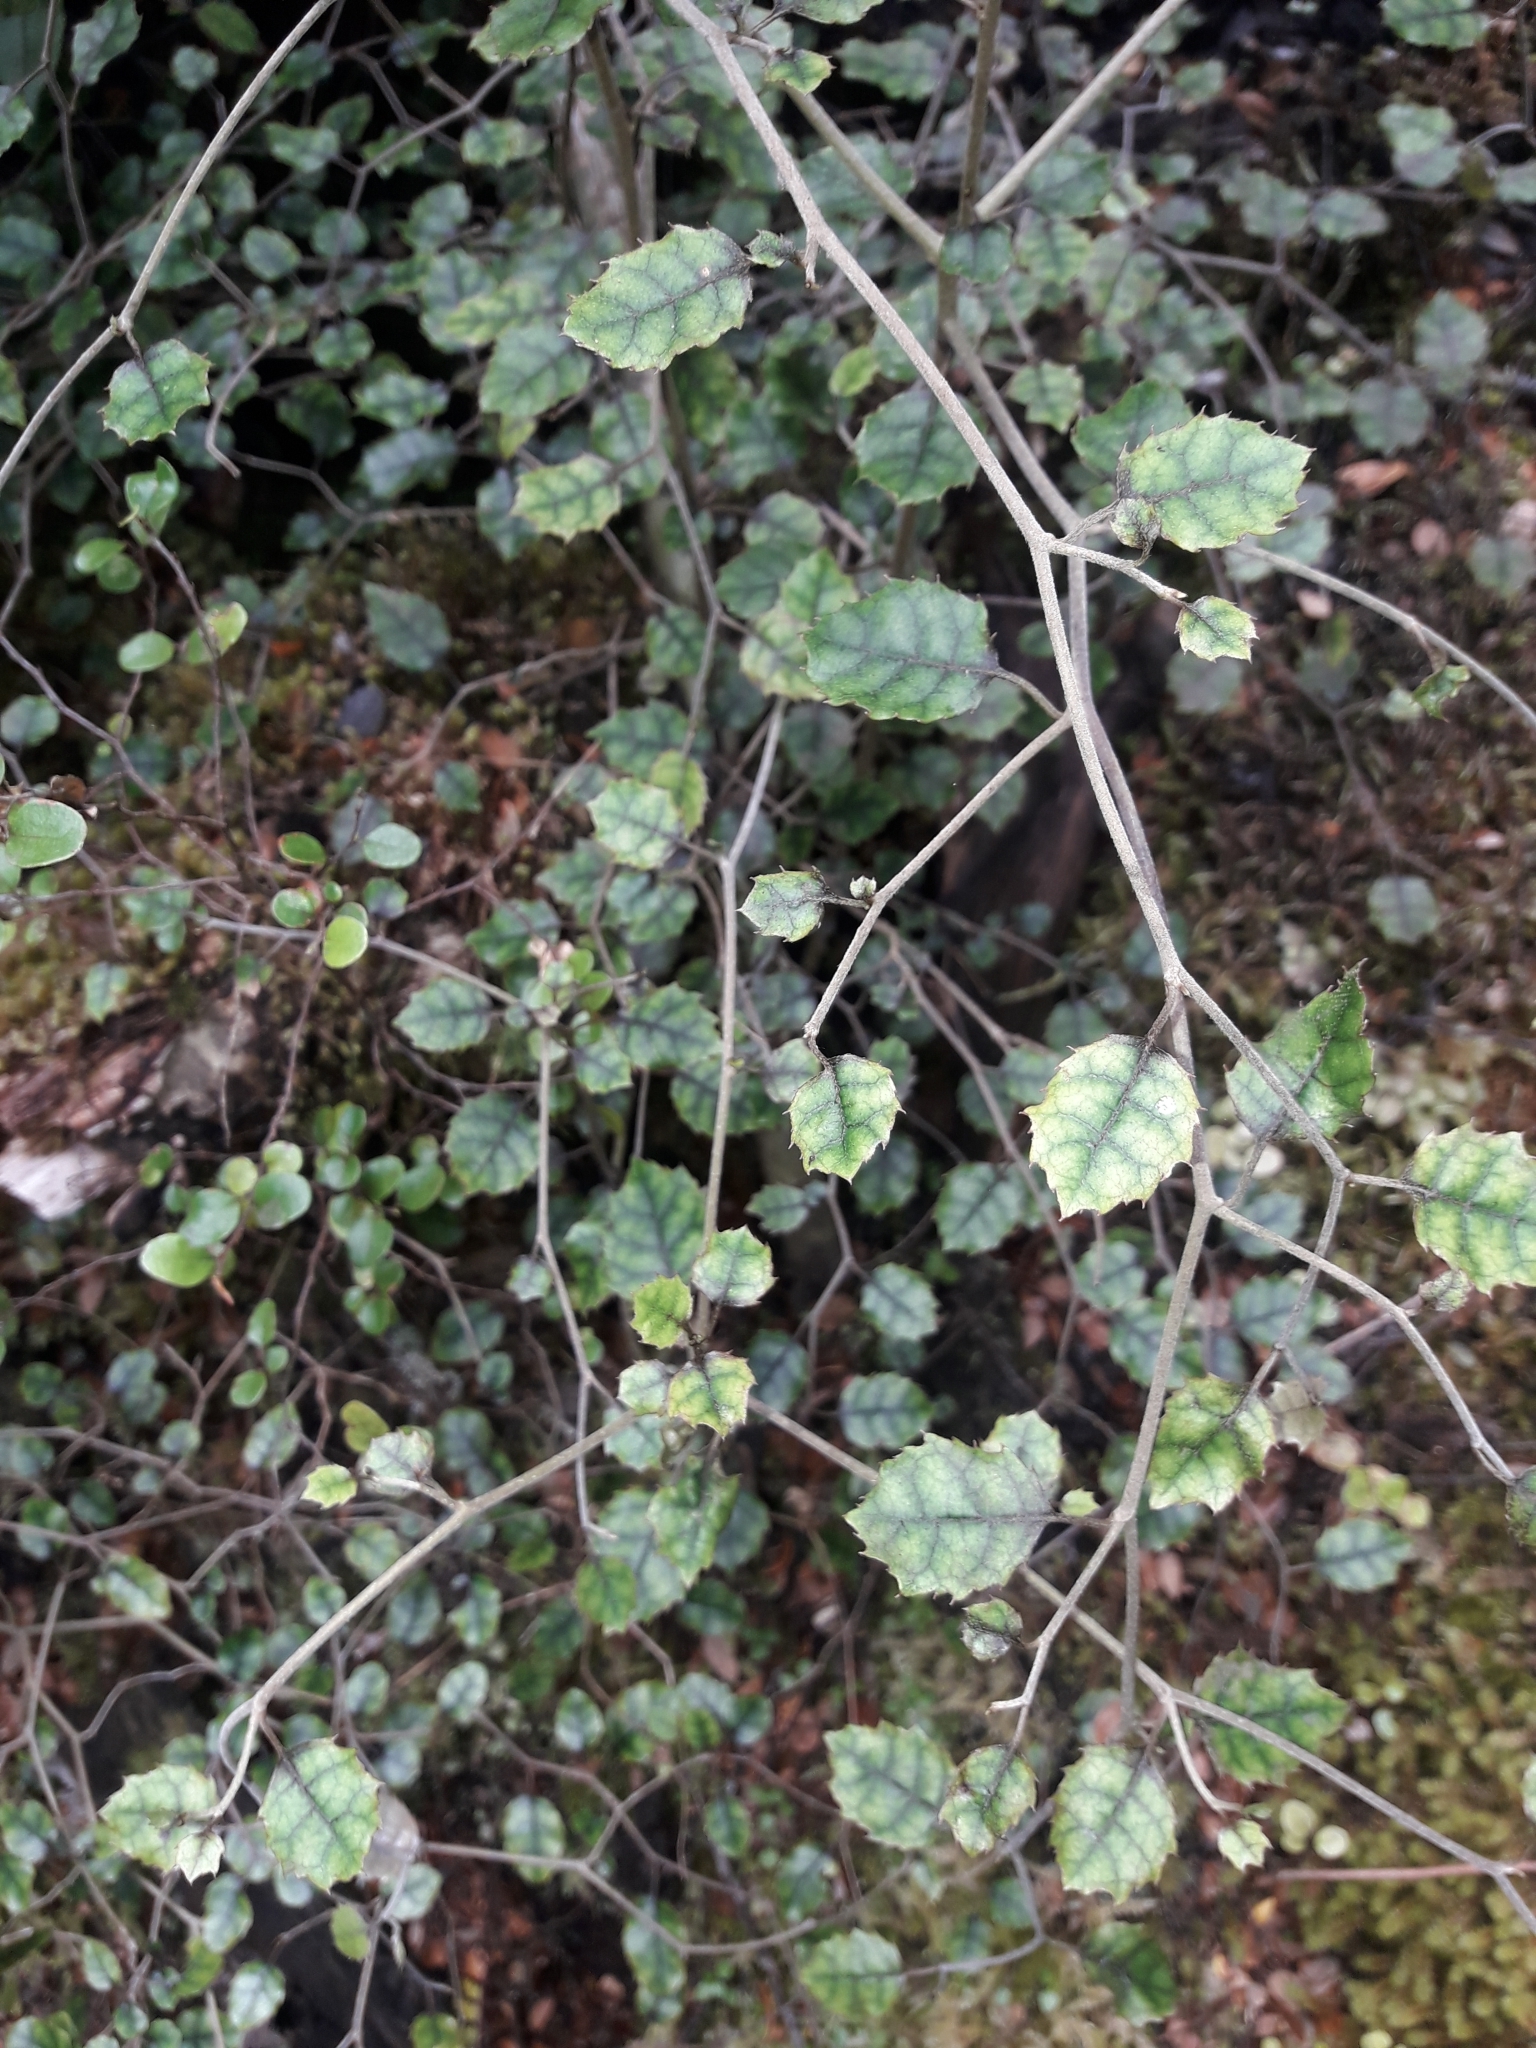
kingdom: Plantae
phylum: Tracheophyta
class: Magnoliopsida
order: Asterales
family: Rousseaceae
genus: Carpodetus
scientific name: Carpodetus serratus
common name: White mapau
